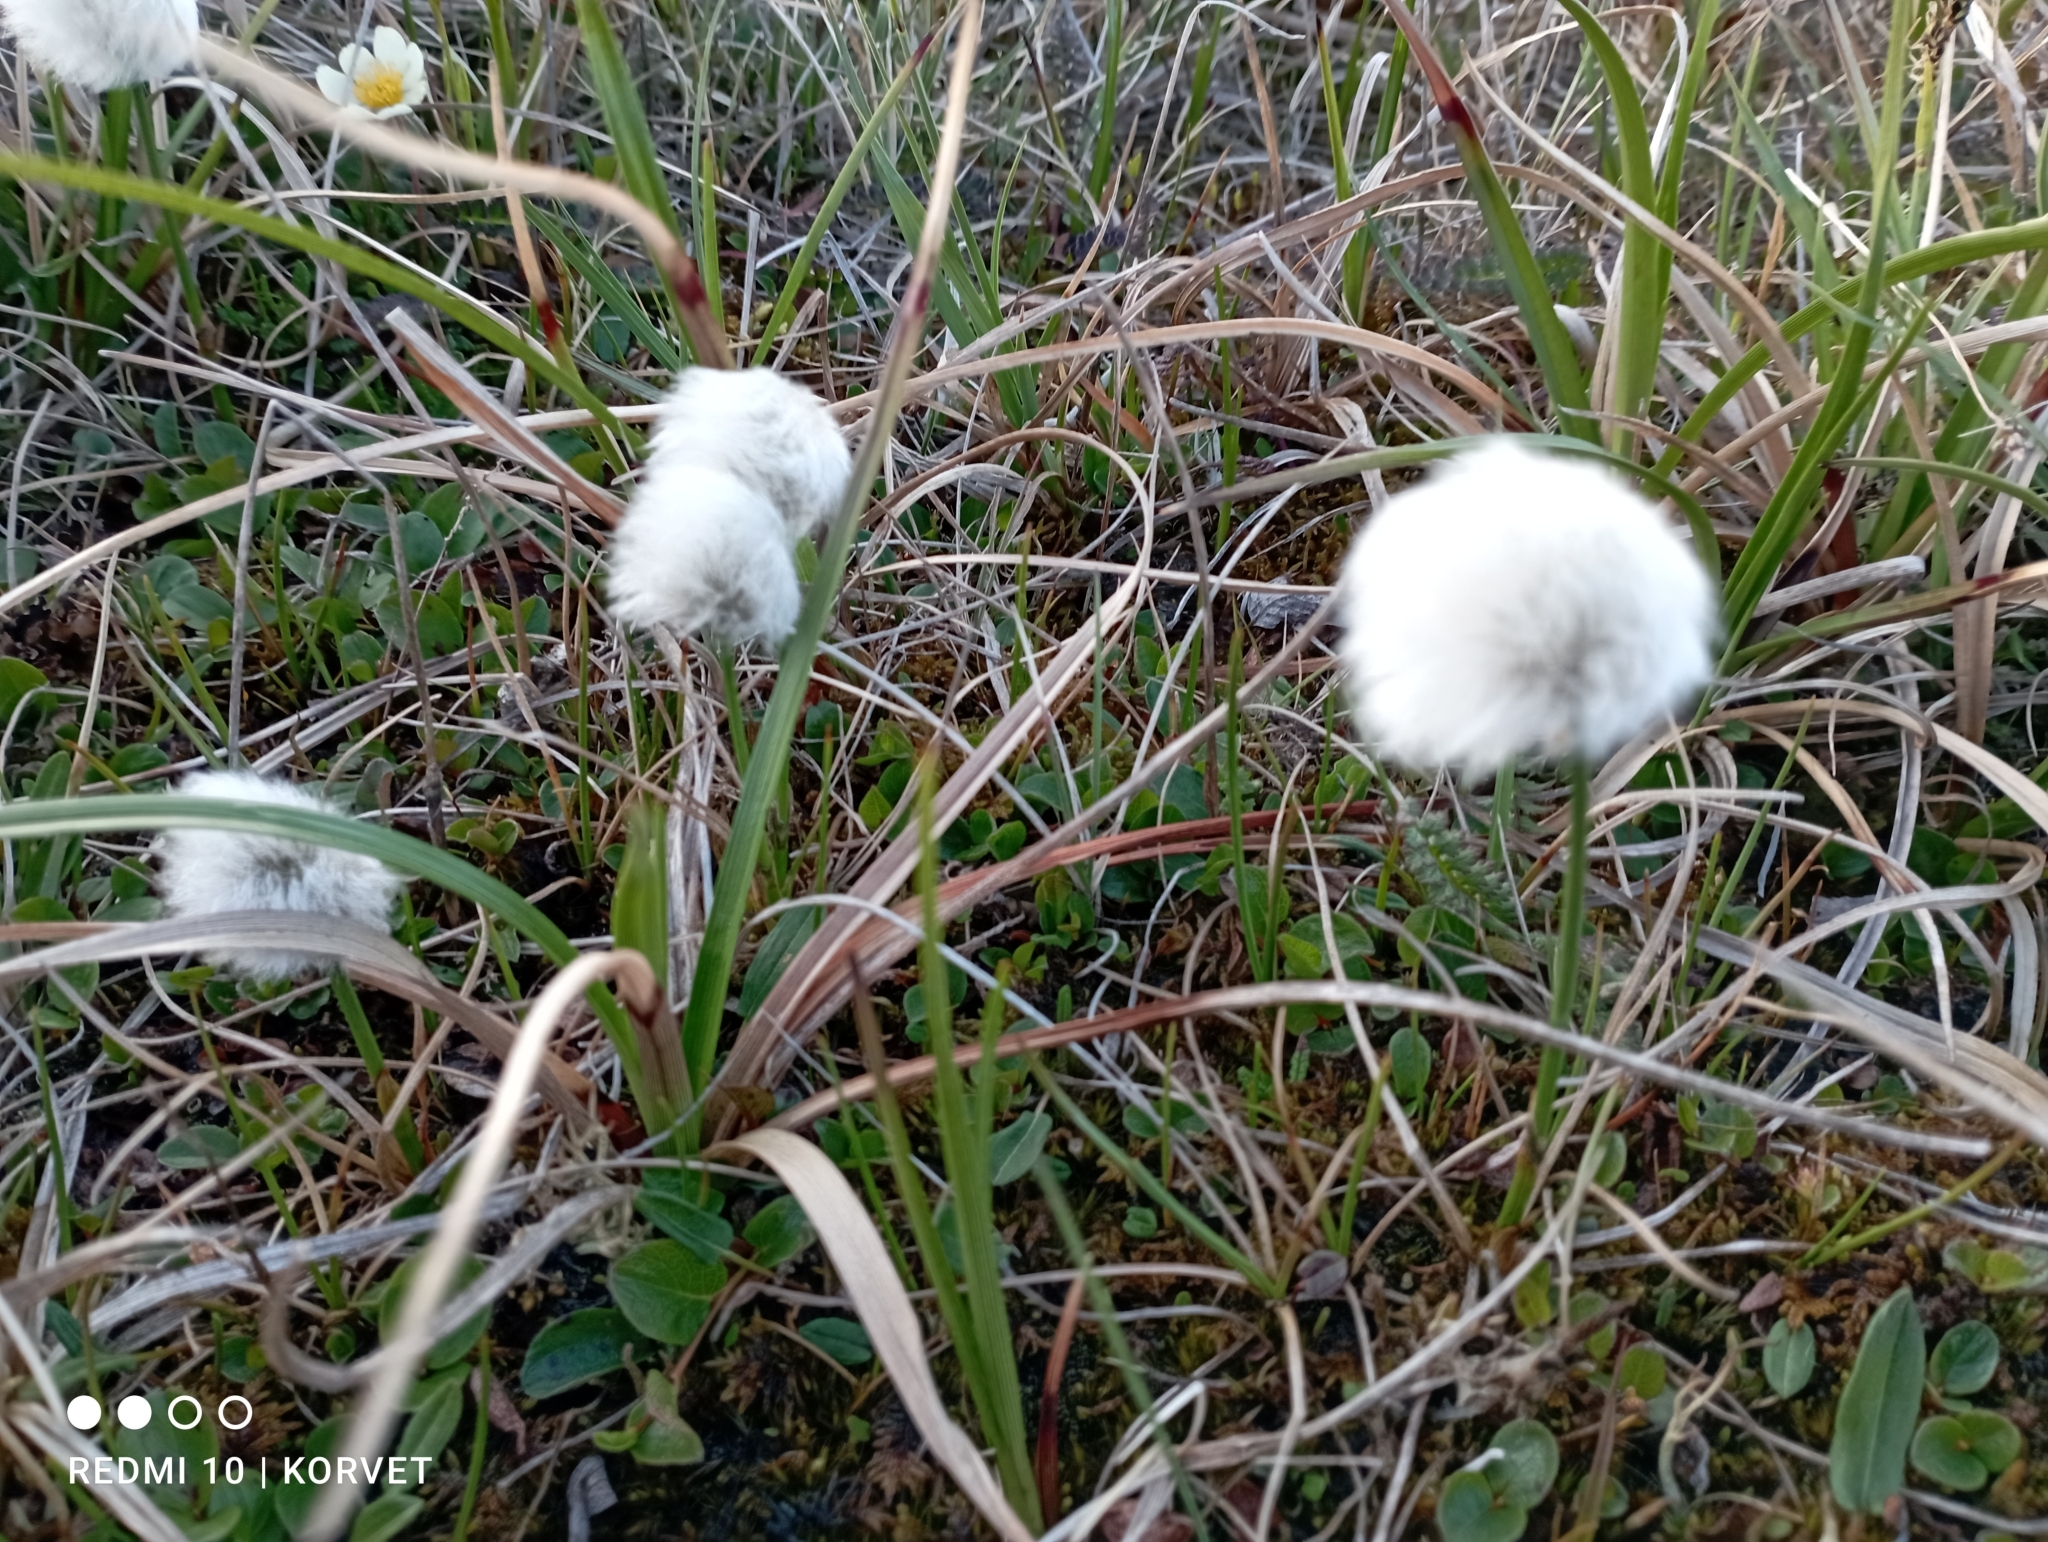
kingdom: Plantae
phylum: Tracheophyta
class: Liliopsida
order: Poales
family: Cyperaceae
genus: Eriophorum
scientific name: Eriophorum scheuchzeri
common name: Scheuchzer's cottongrass
